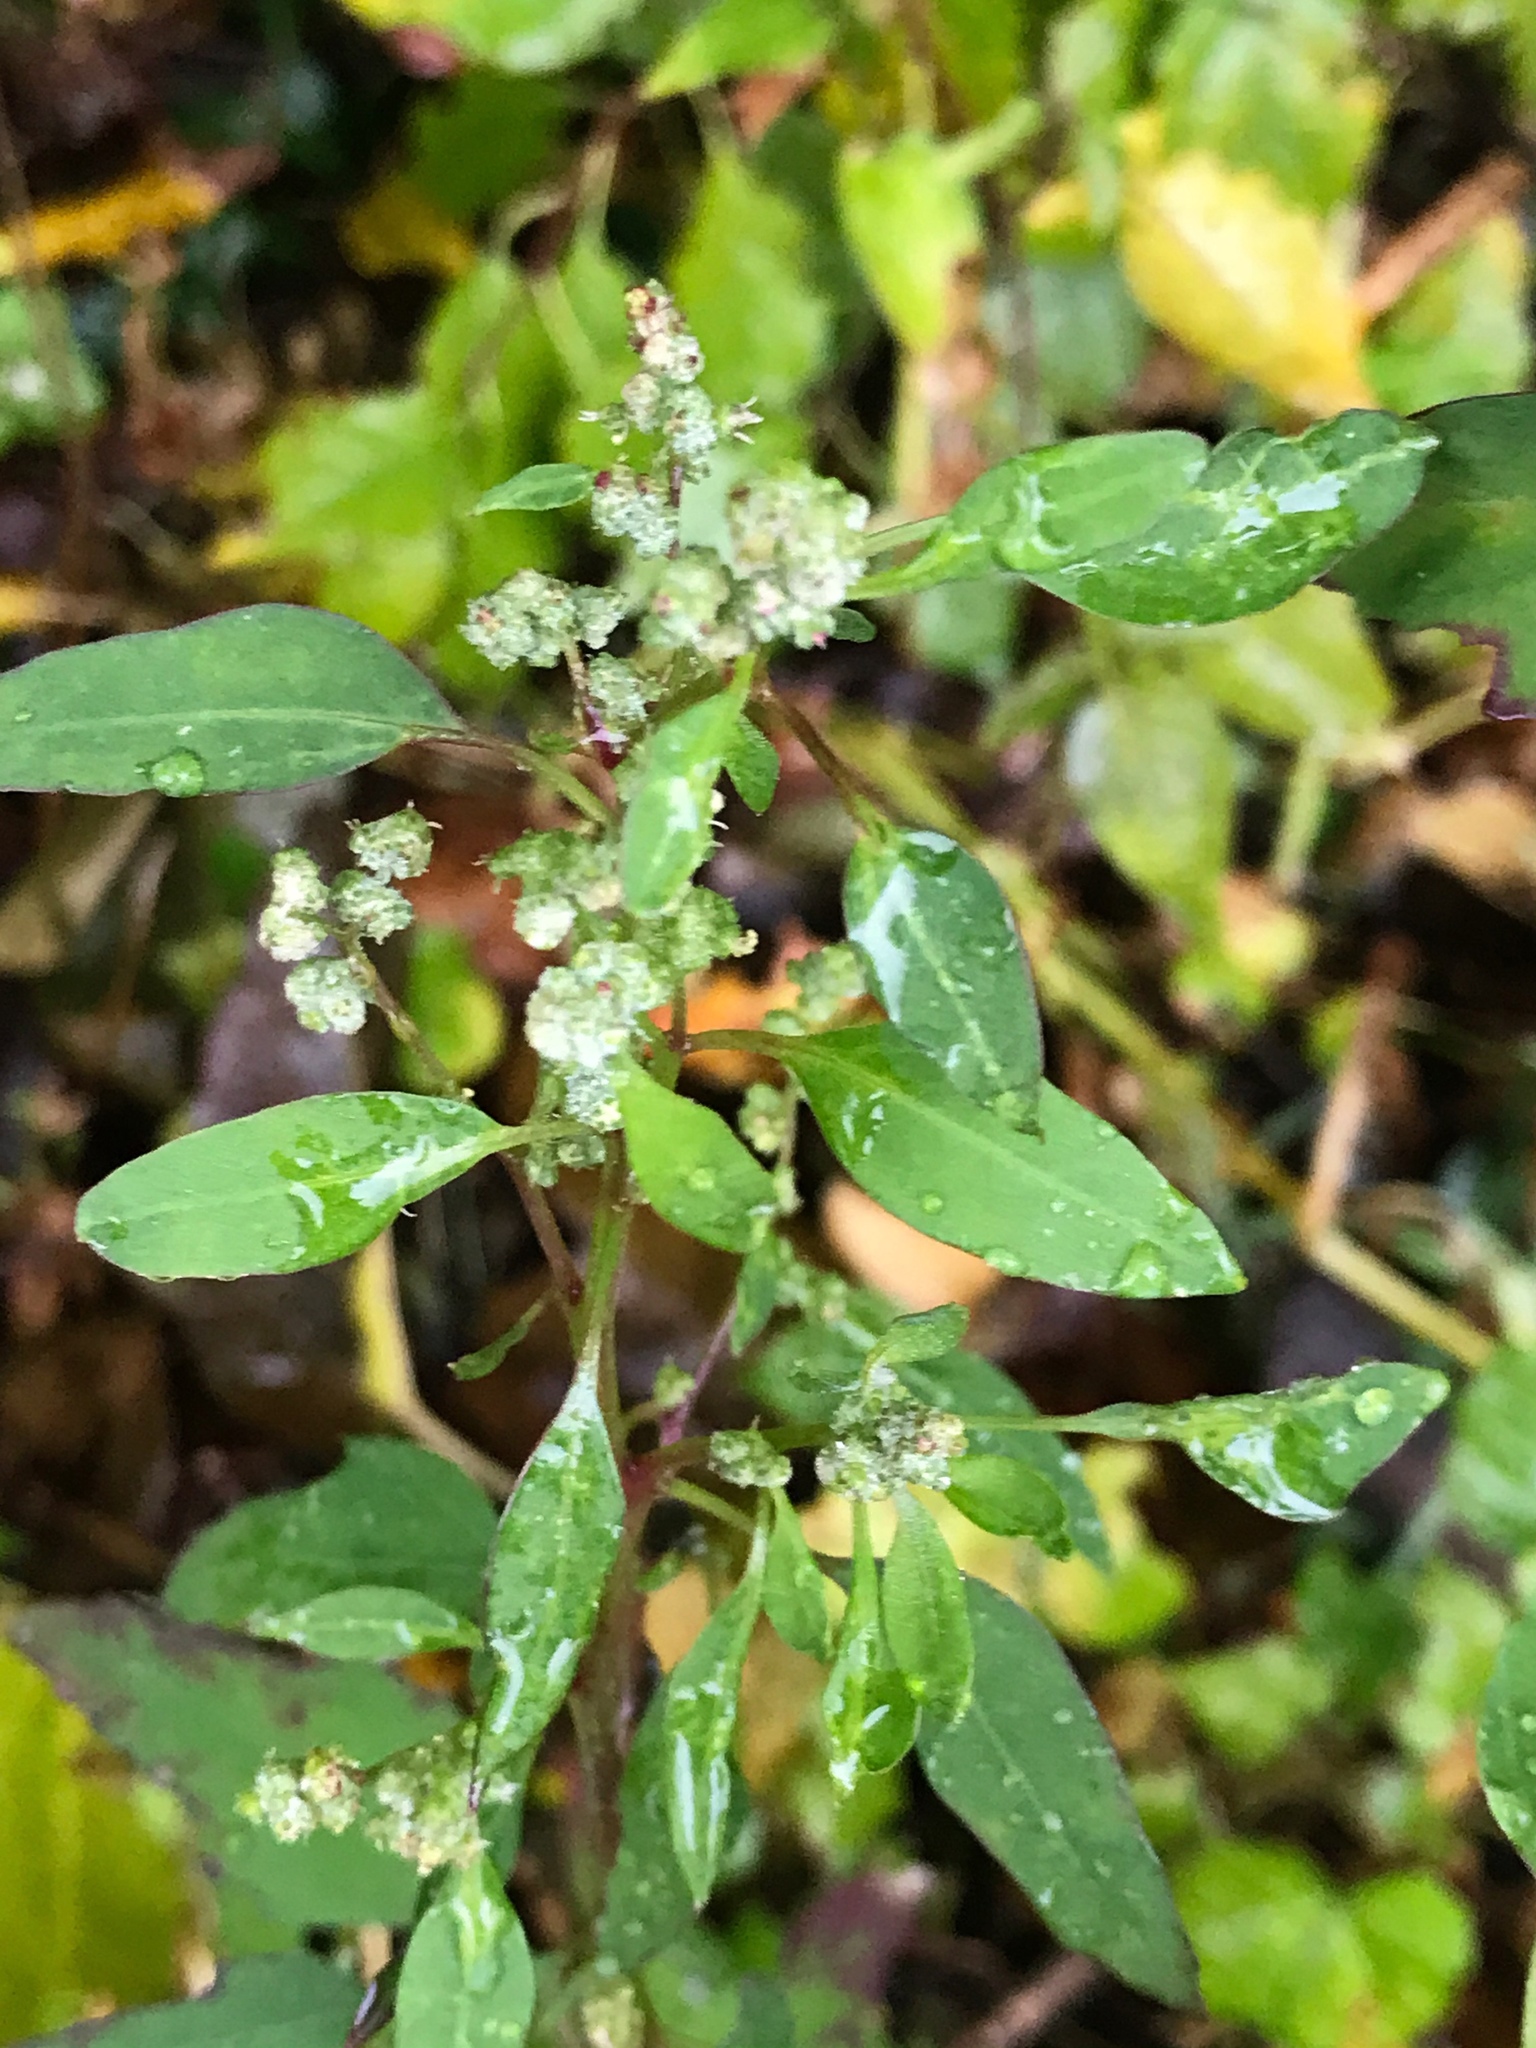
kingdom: Plantae
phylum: Tracheophyta
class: Magnoliopsida
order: Caryophyllales
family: Amaranthaceae
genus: Chenopodium
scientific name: Chenopodium album
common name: Fat-hen
